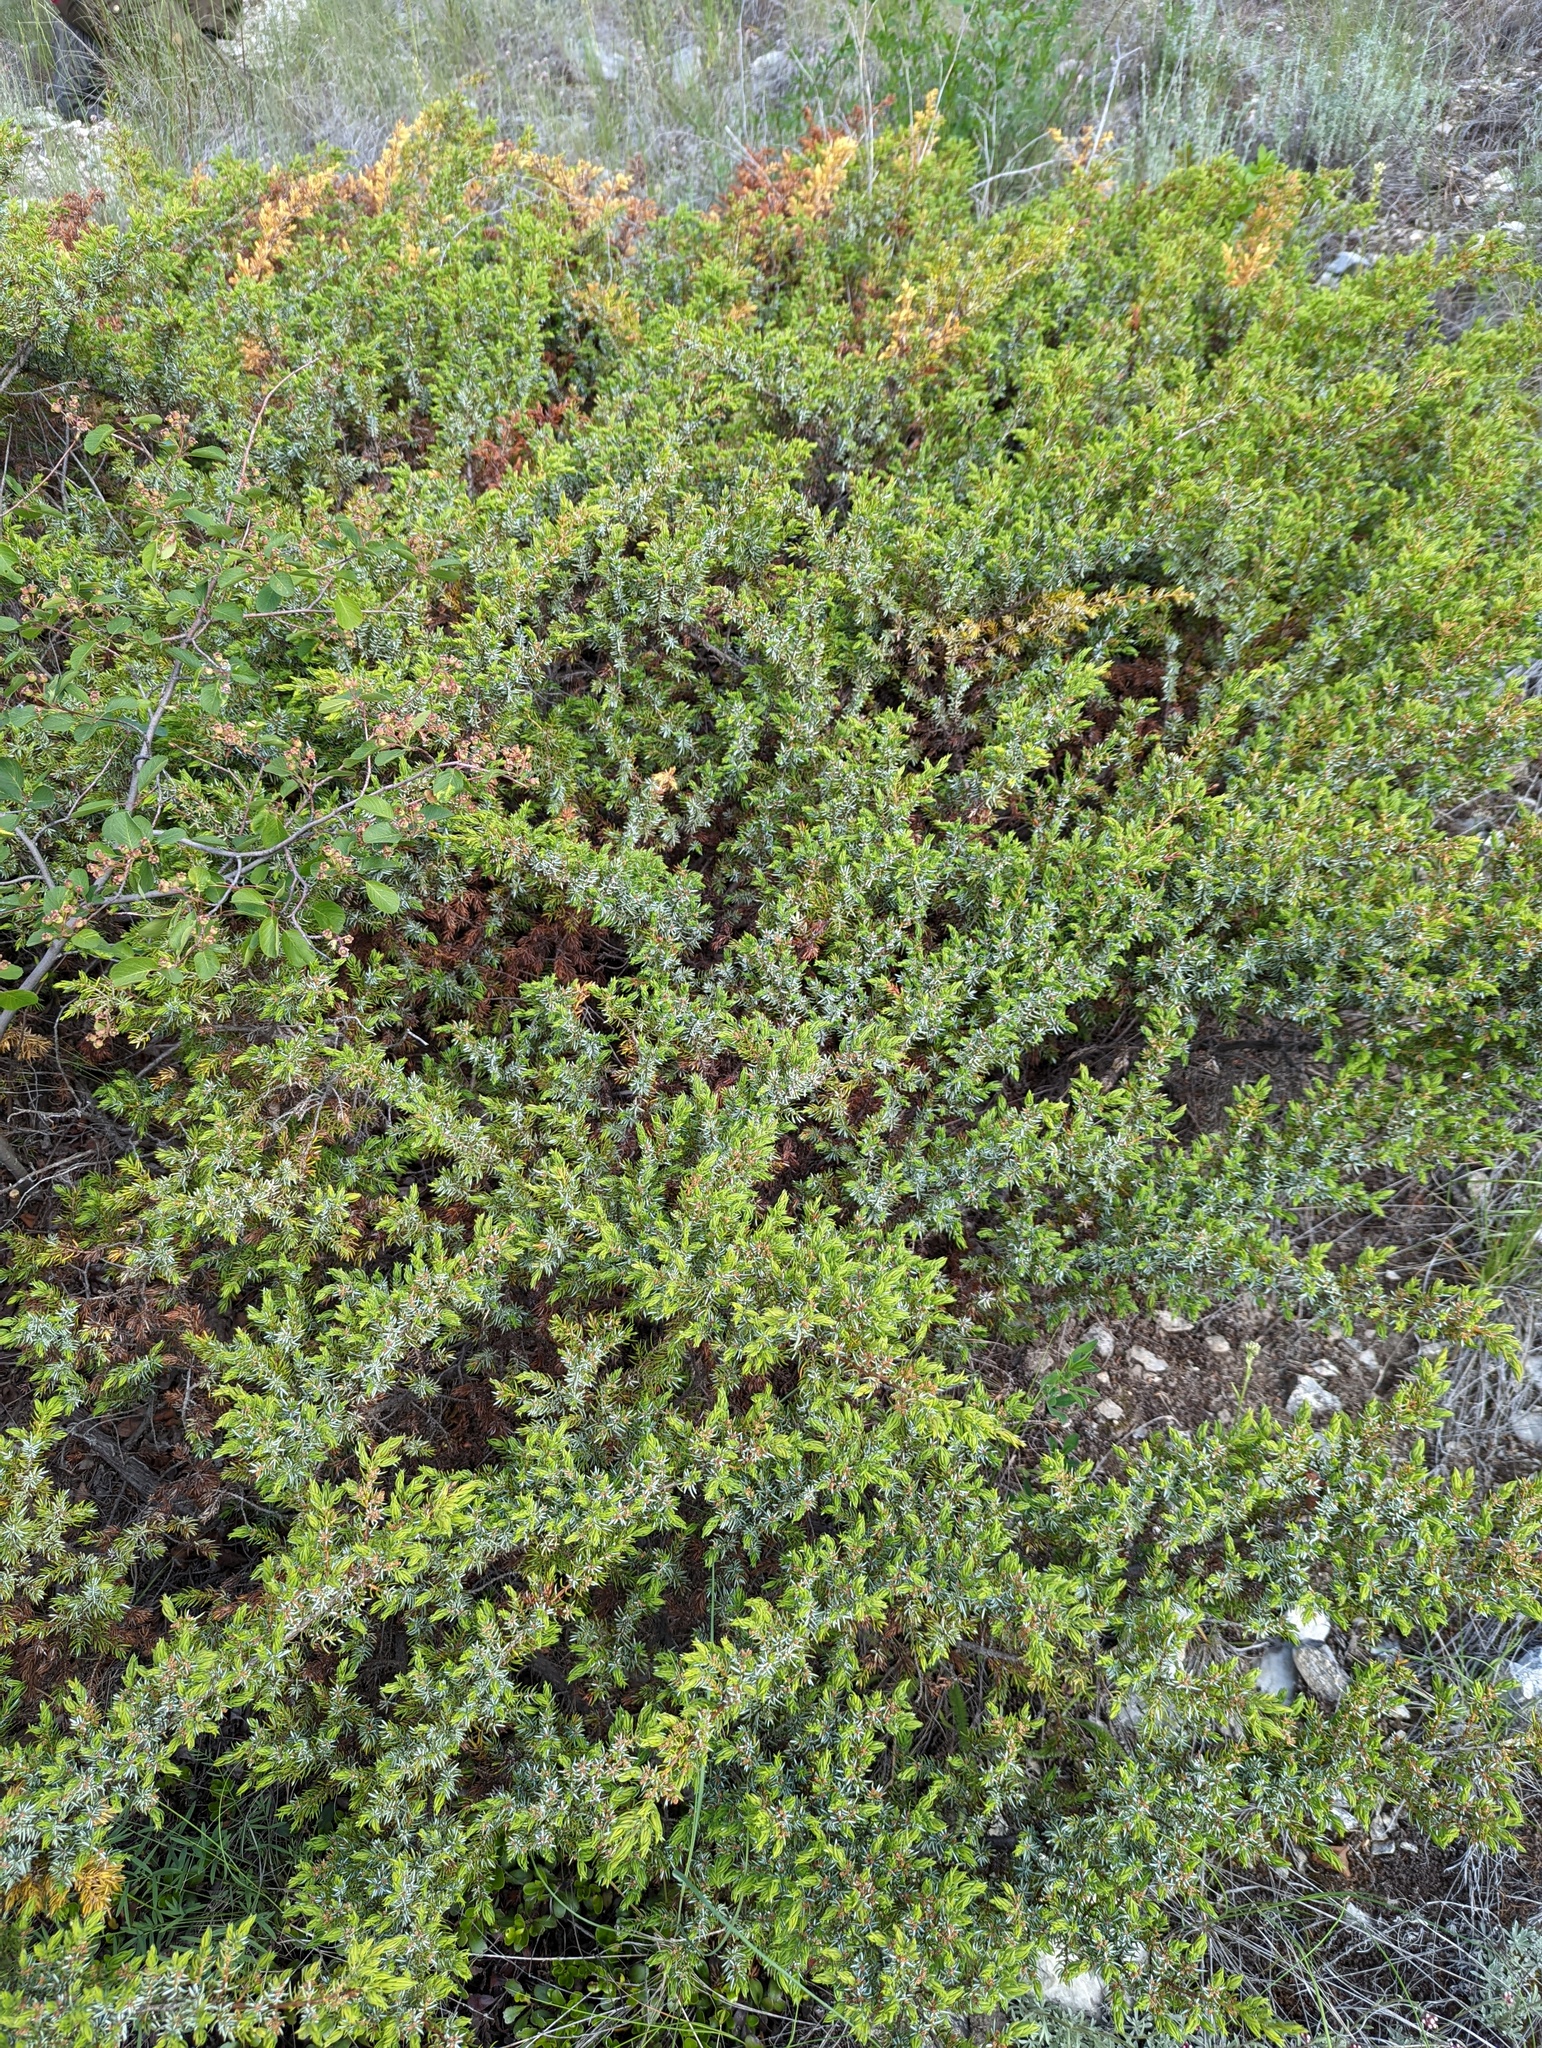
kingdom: Plantae
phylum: Tracheophyta
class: Pinopsida
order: Pinales
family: Cupressaceae
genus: Juniperus
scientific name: Juniperus communis
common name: Common juniper
